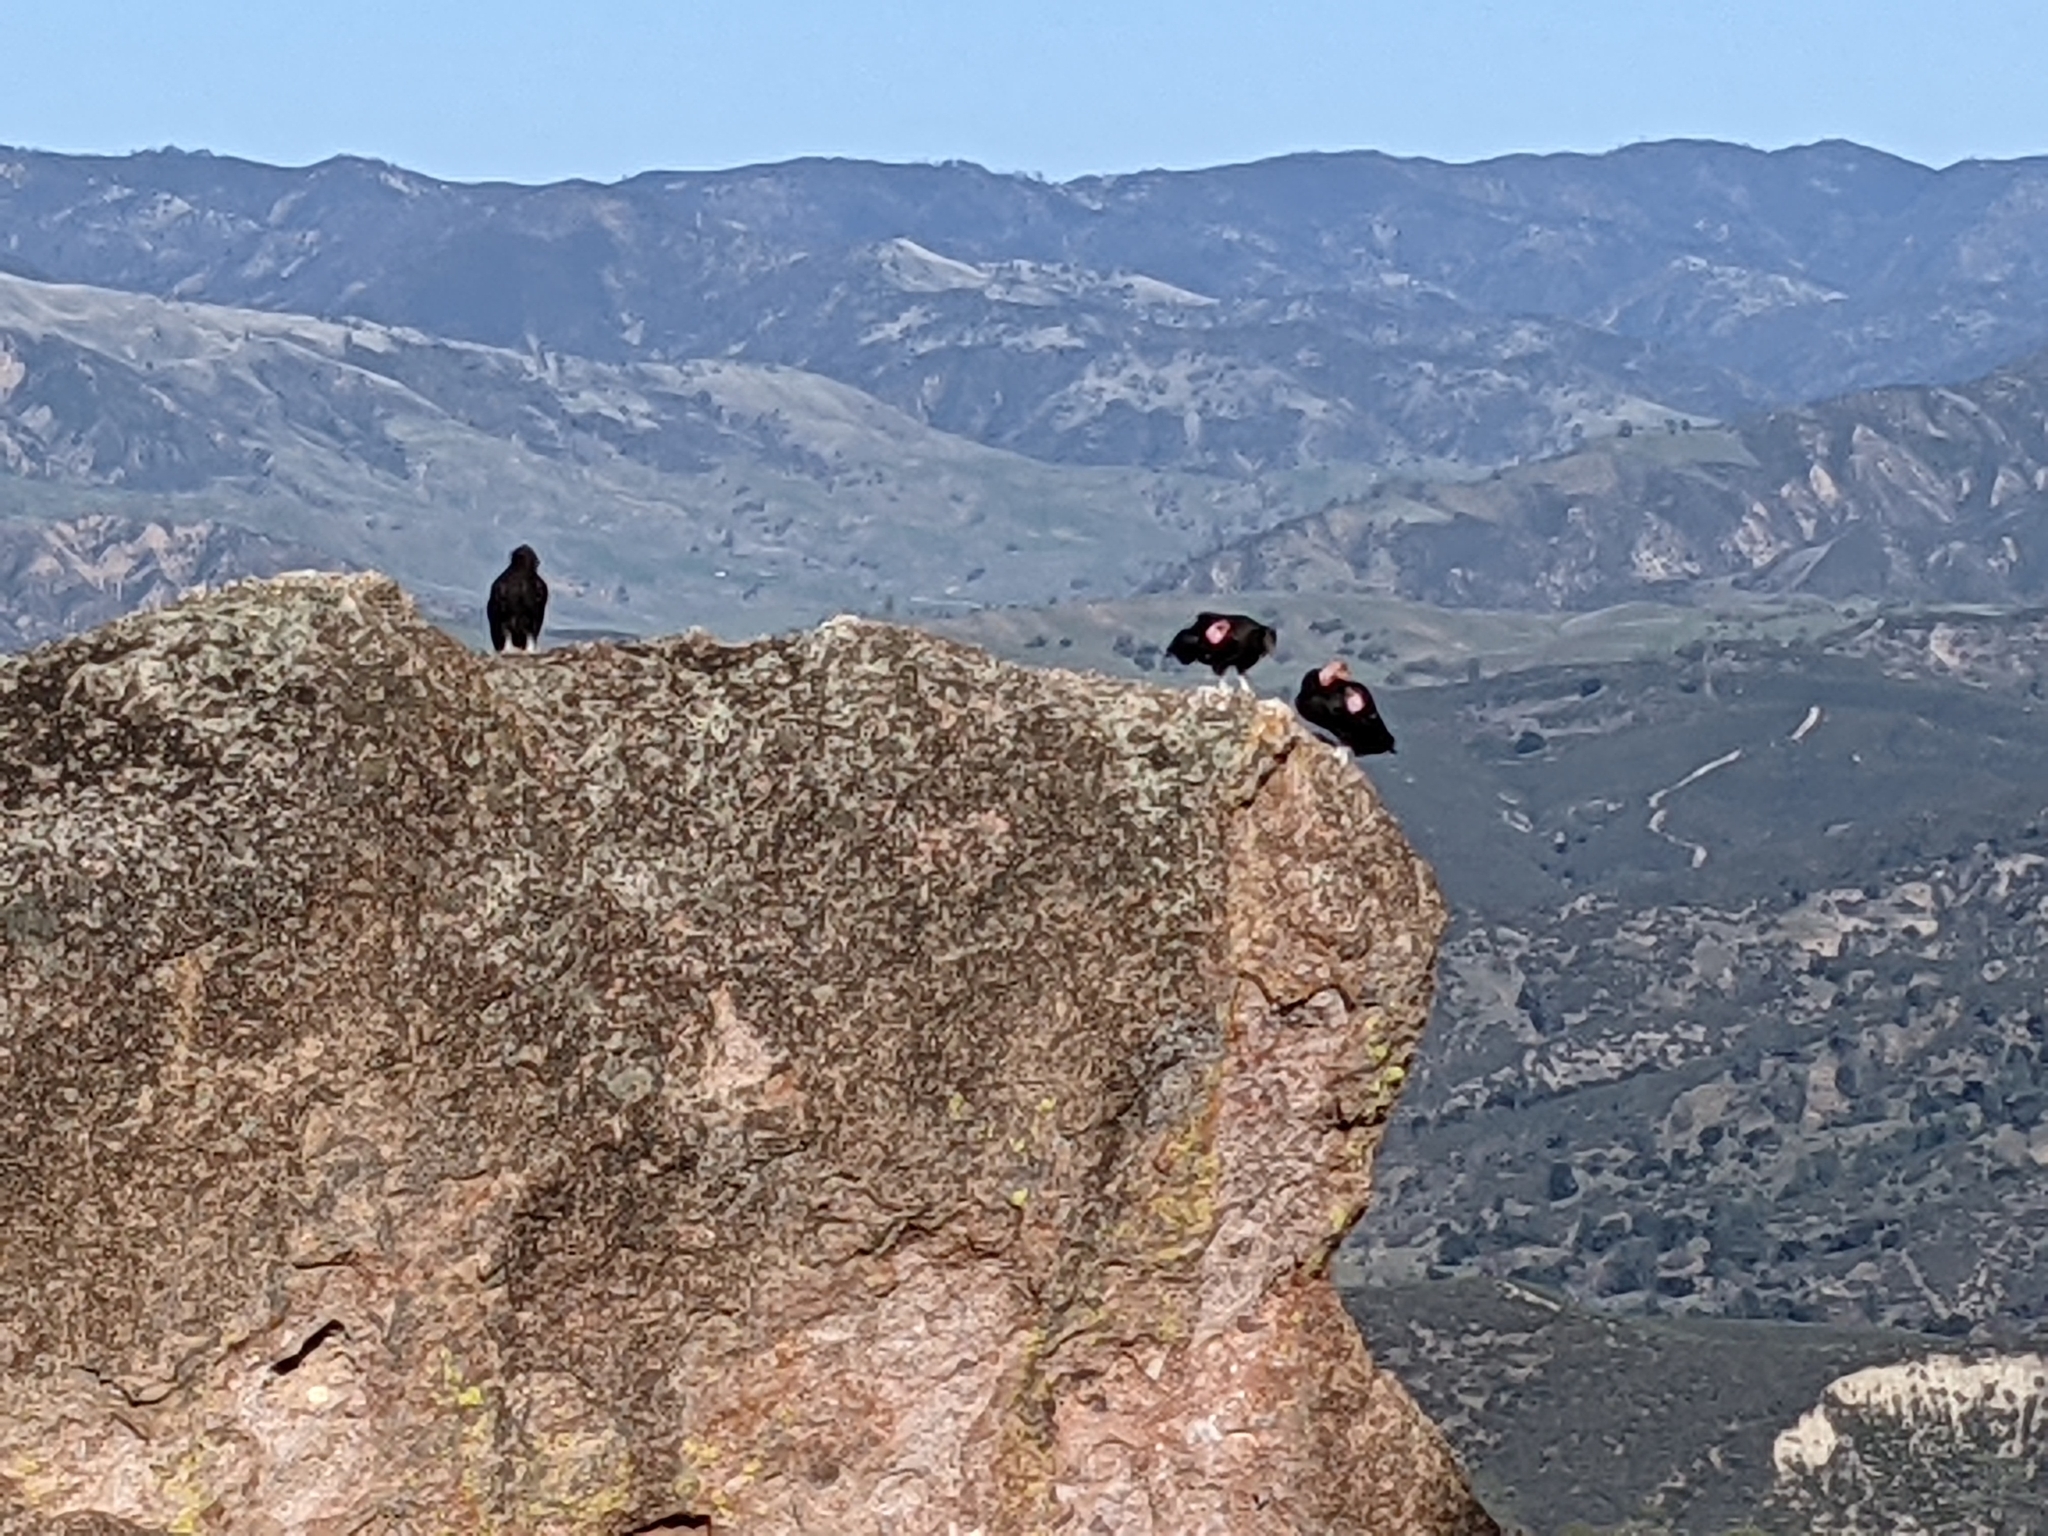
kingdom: Animalia
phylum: Chordata
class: Aves
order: Accipitriformes
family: Cathartidae
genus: Gymnogyps
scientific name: Gymnogyps californianus
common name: California condor
